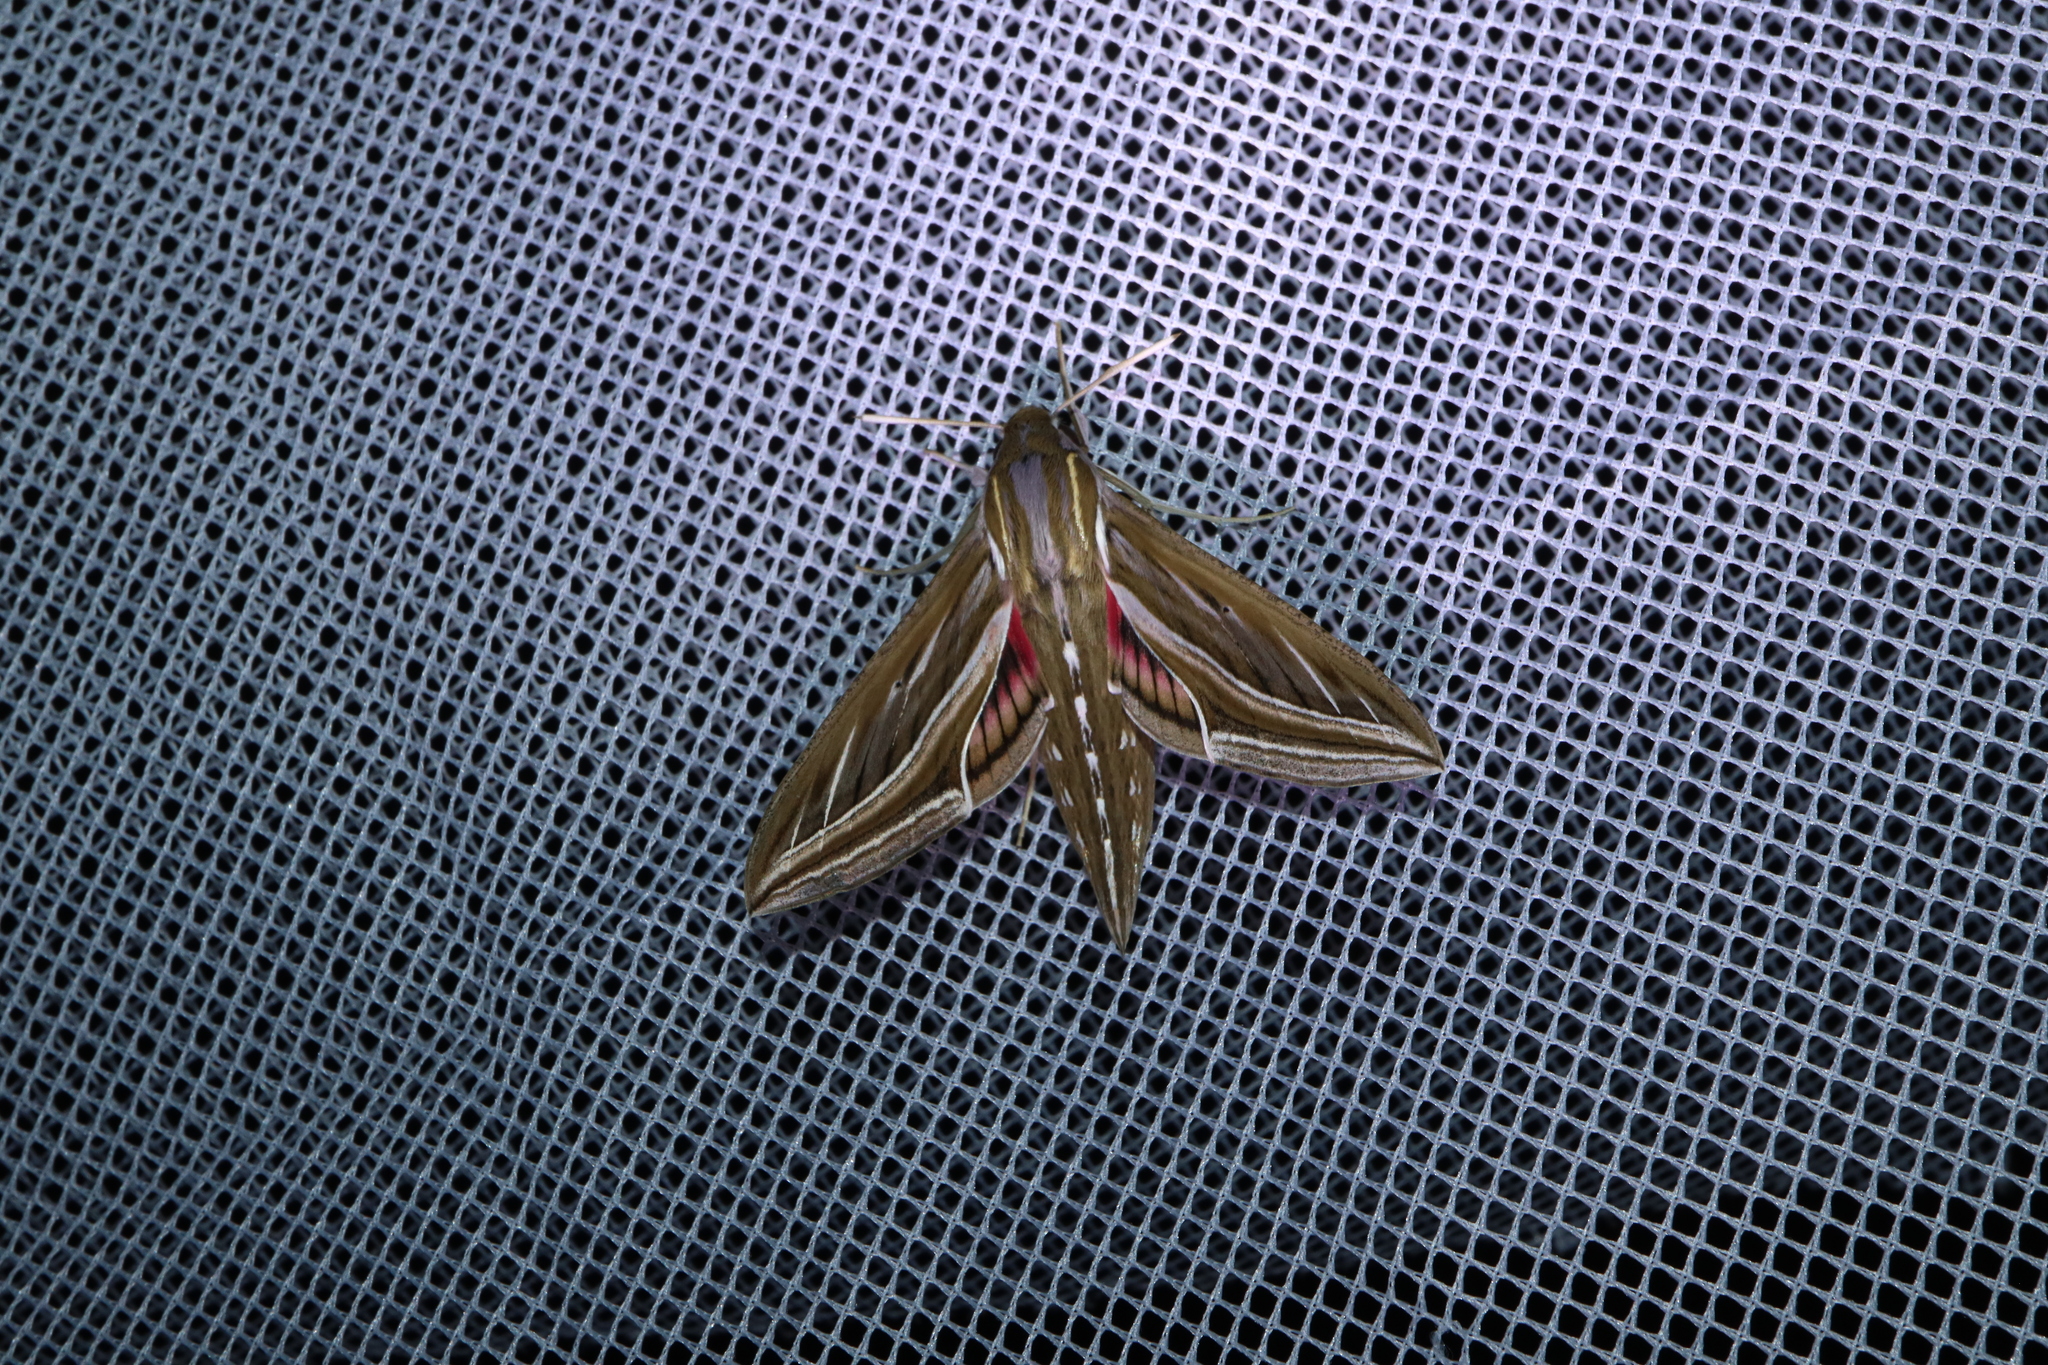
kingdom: Animalia
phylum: Arthropoda
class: Insecta
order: Lepidoptera
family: Sphingidae
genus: Hippotion
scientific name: Hippotion celerio
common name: Silver-striped hawk-moth
